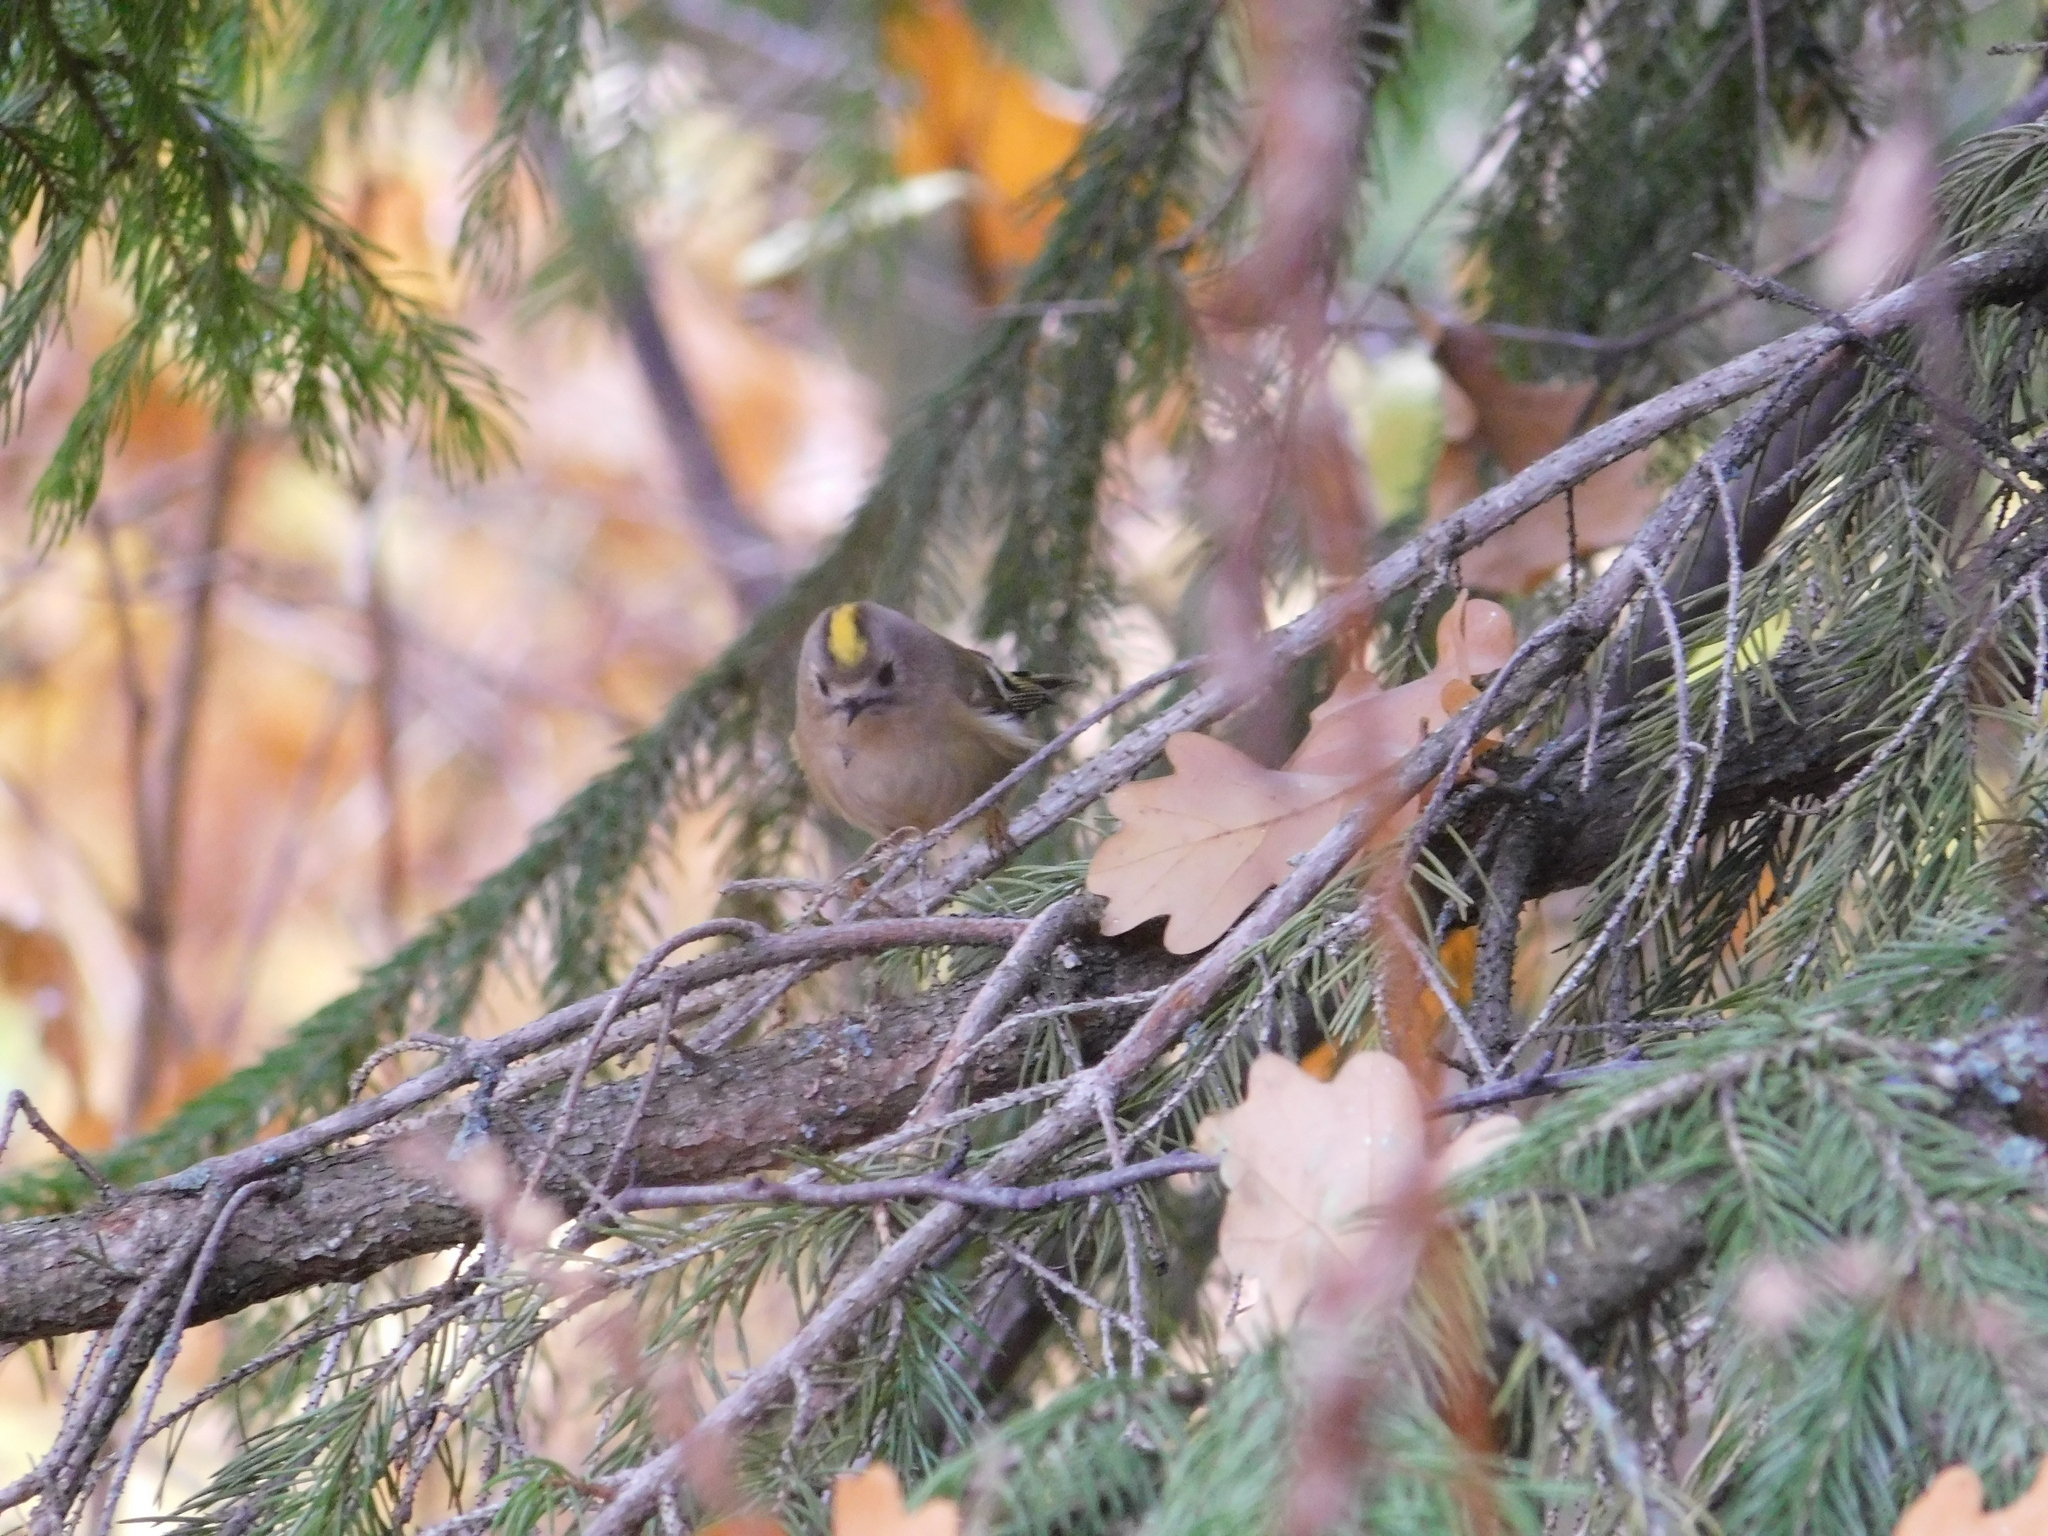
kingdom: Animalia
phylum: Chordata
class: Aves
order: Passeriformes
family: Regulidae
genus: Regulus
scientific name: Regulus regulus
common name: Goldcrest
